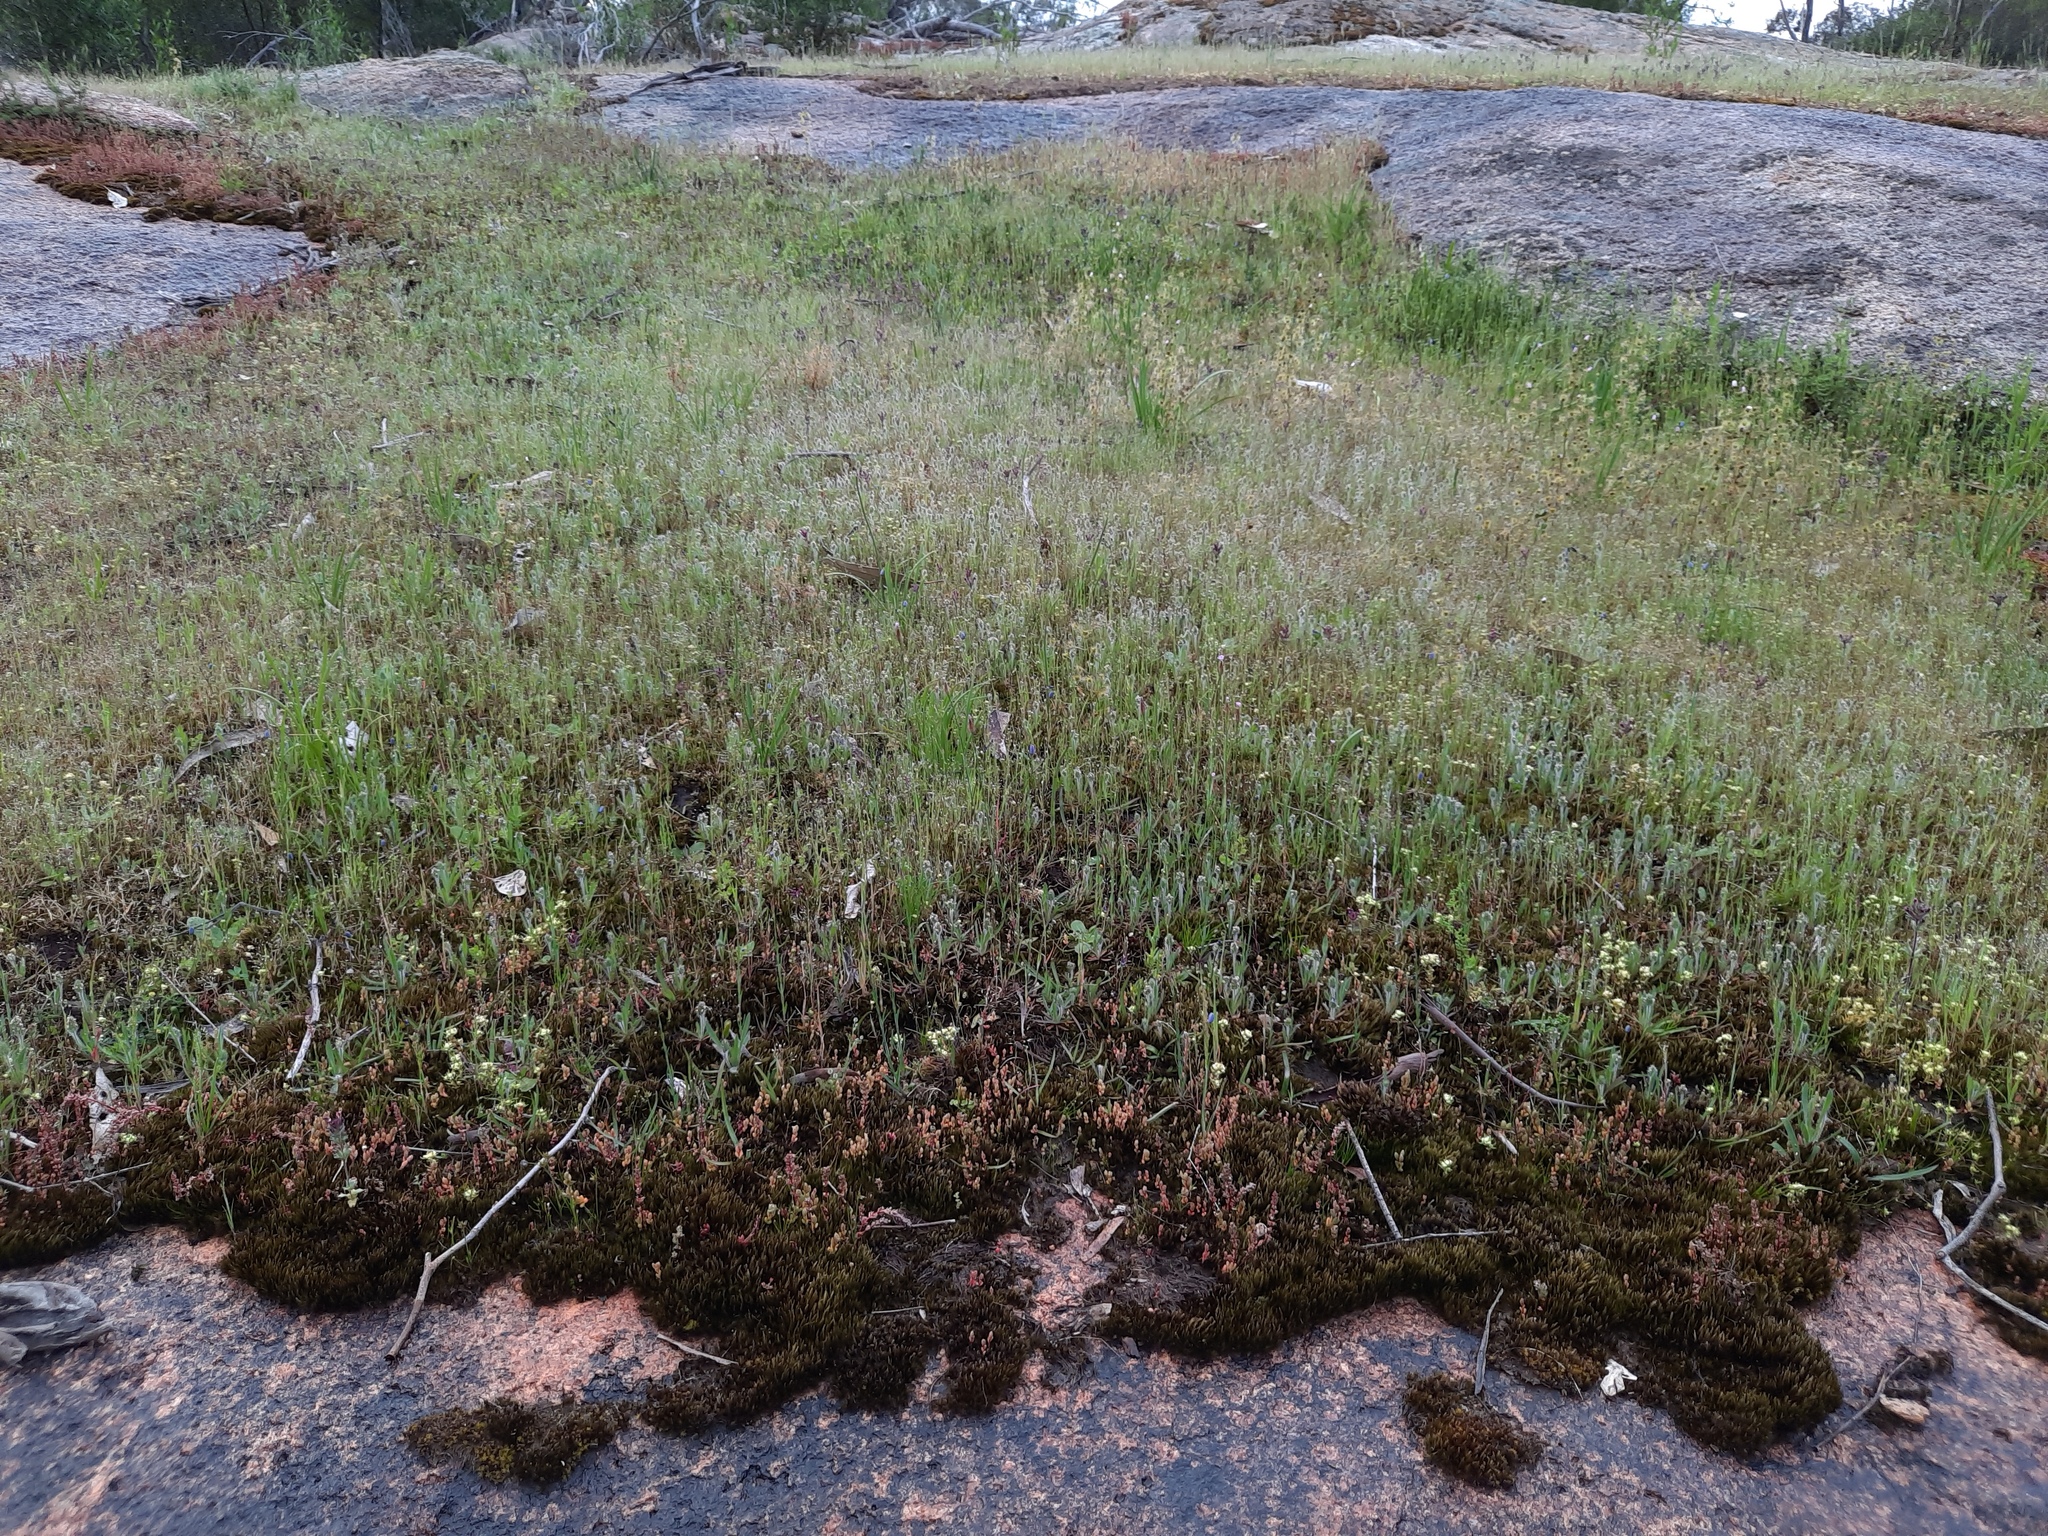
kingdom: Plantae
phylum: Tracheophyta
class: Magnoliopsida
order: Asterales
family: Asteraceae
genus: Millotia
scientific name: Millotia tenuifolia
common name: Soft millotia
